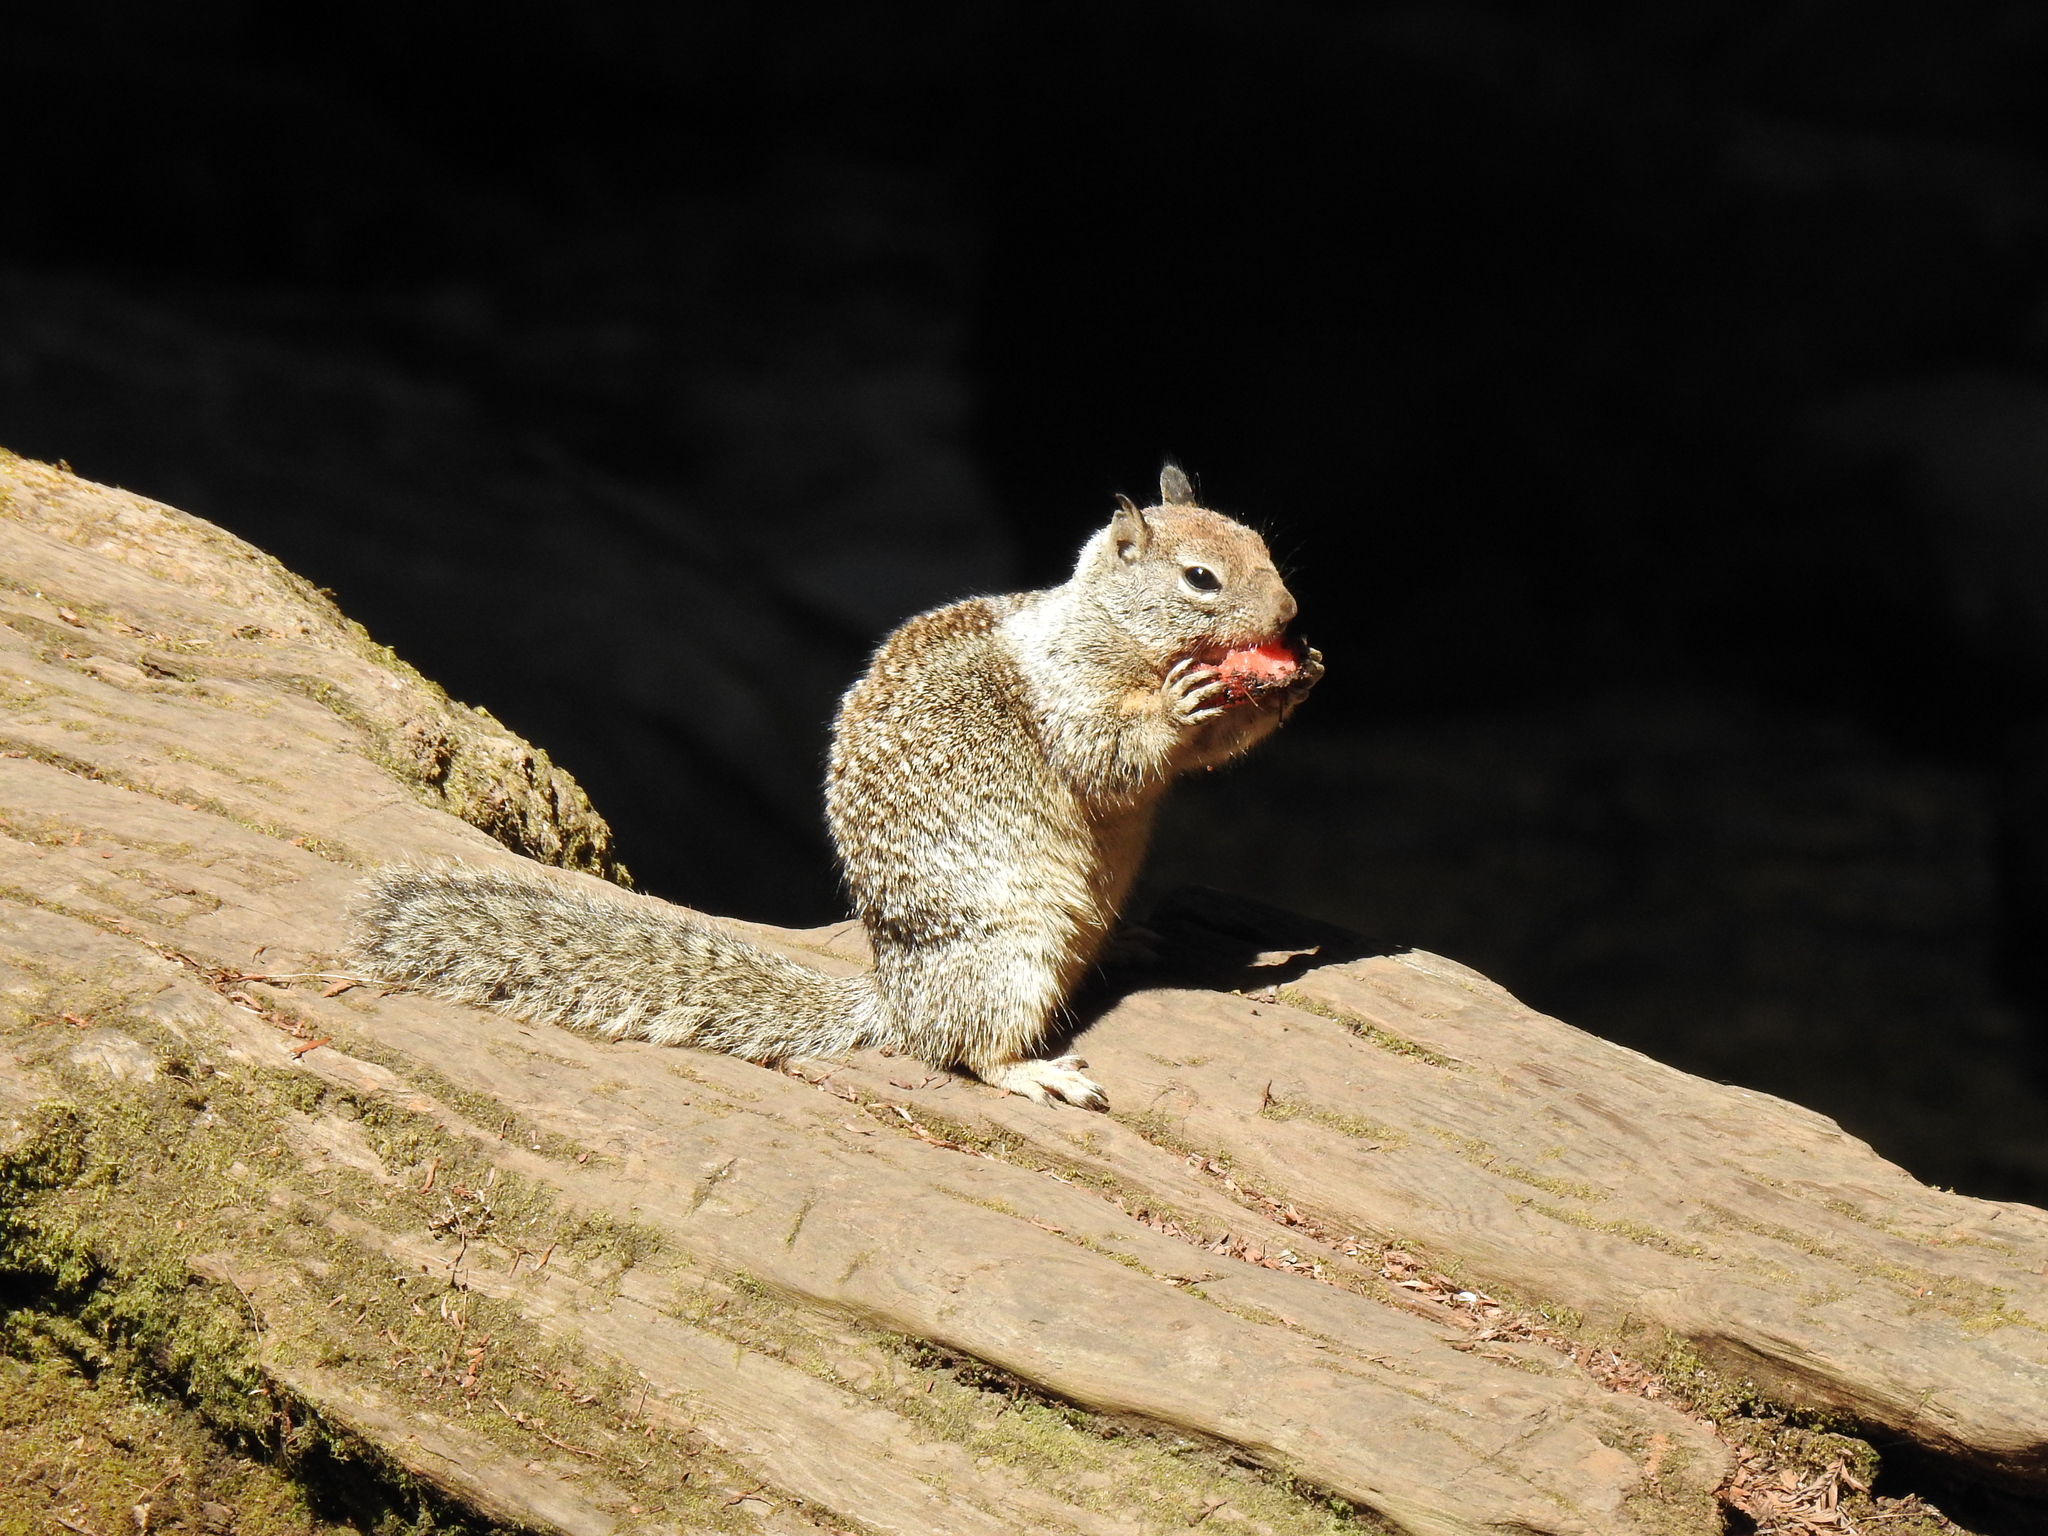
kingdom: Animalia
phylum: Chordata
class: Mammalia
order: Rodentia
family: Sciuridae
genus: Otospermophilus
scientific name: Otospermophilus beecheyi
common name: California ground squirrel
